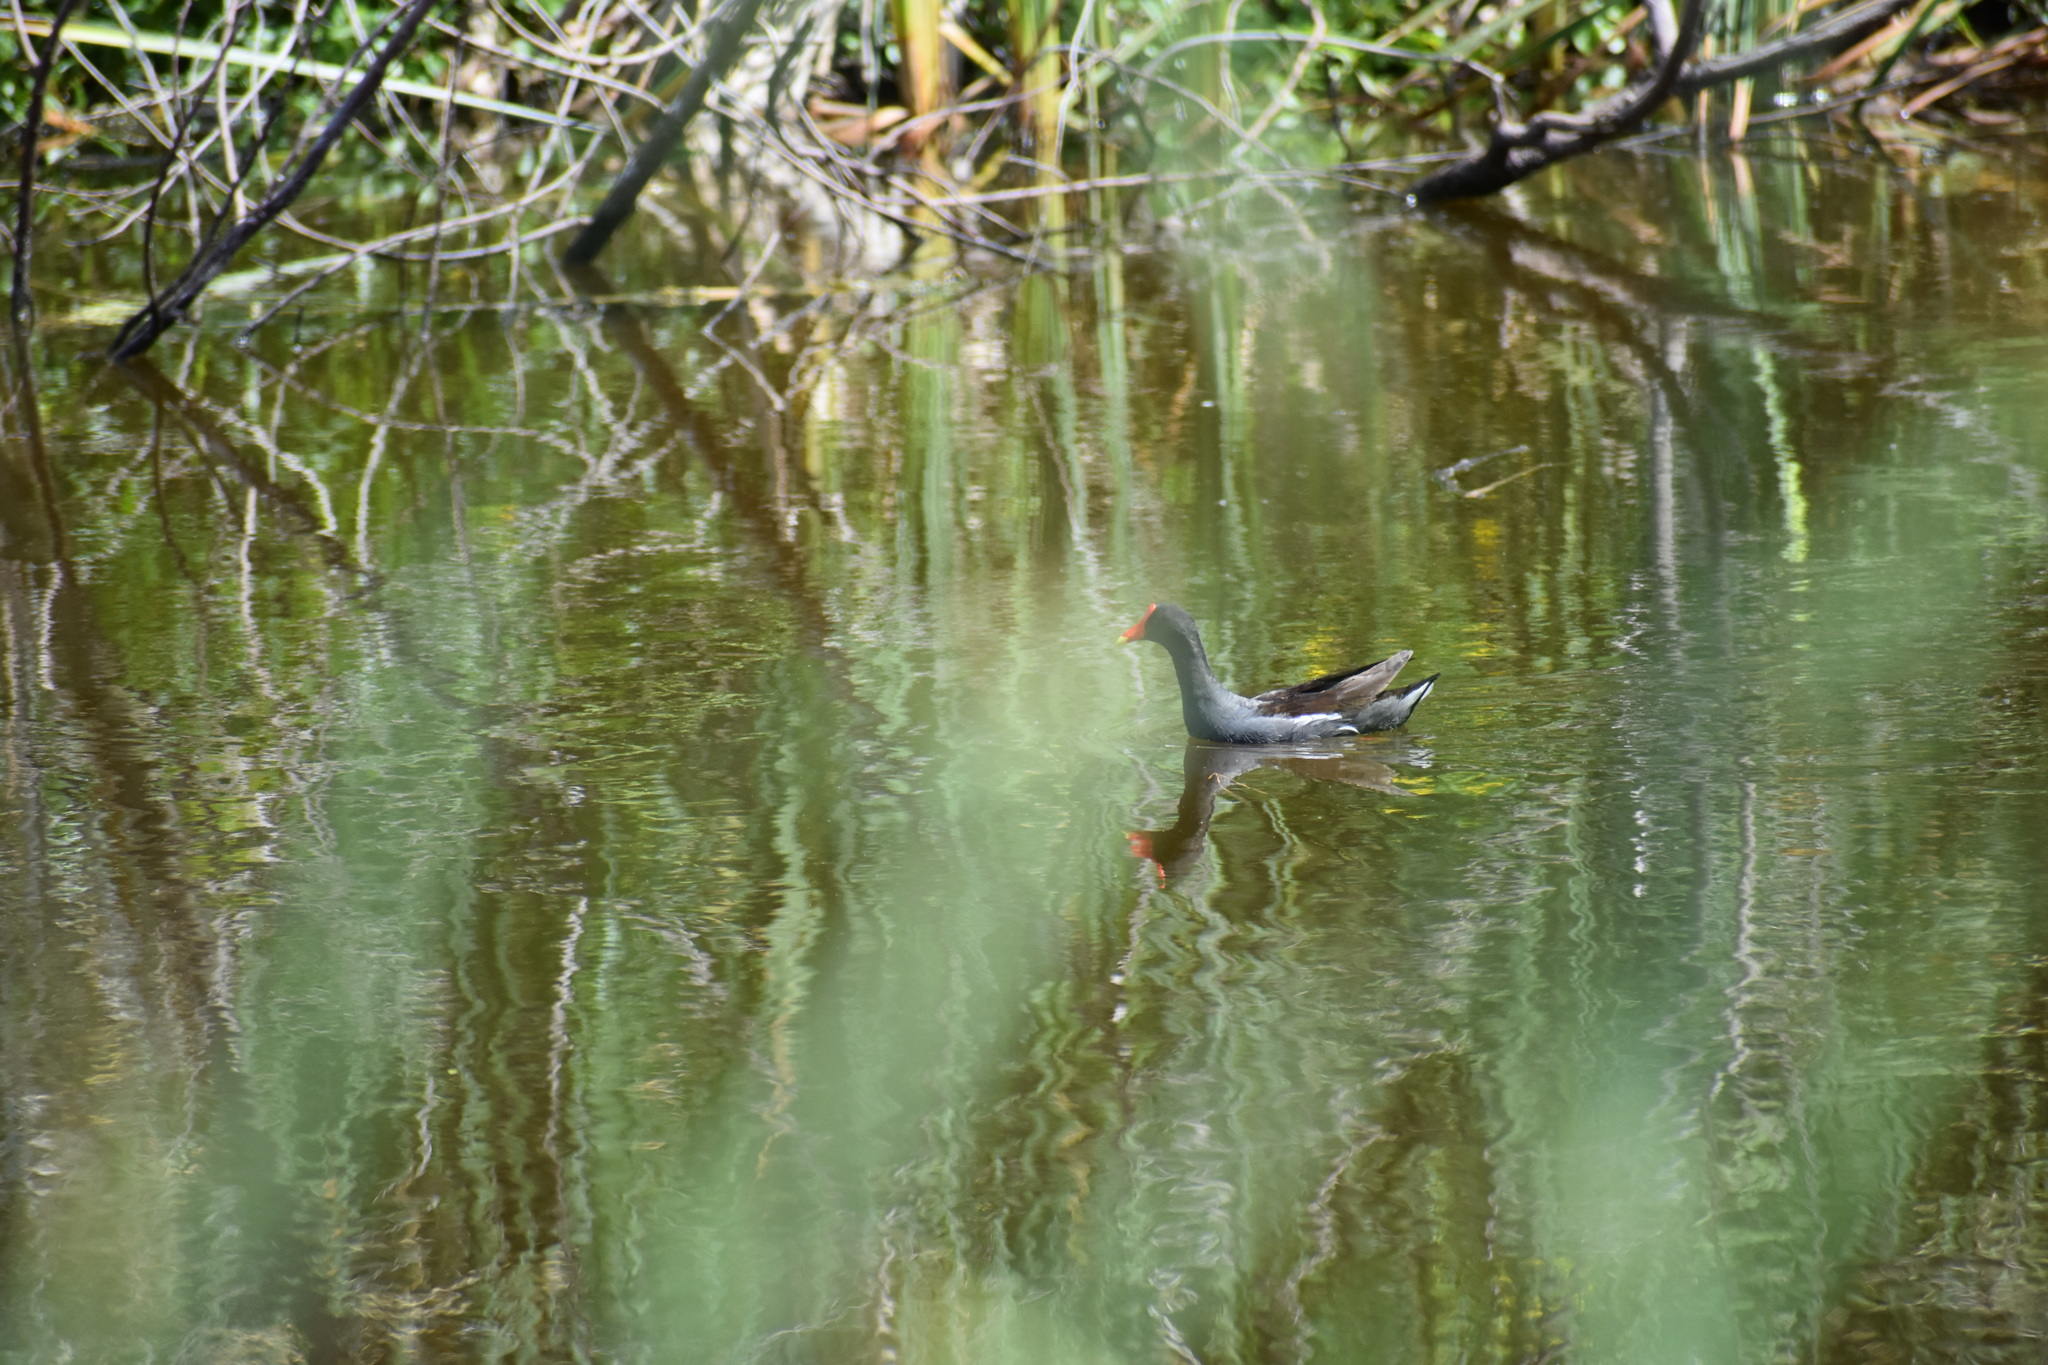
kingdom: Animalia
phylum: Chordata
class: Aves
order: Gruiformes
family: Rallidae
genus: Gallinula
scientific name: Gallinula chloropus
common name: Common moorhen
